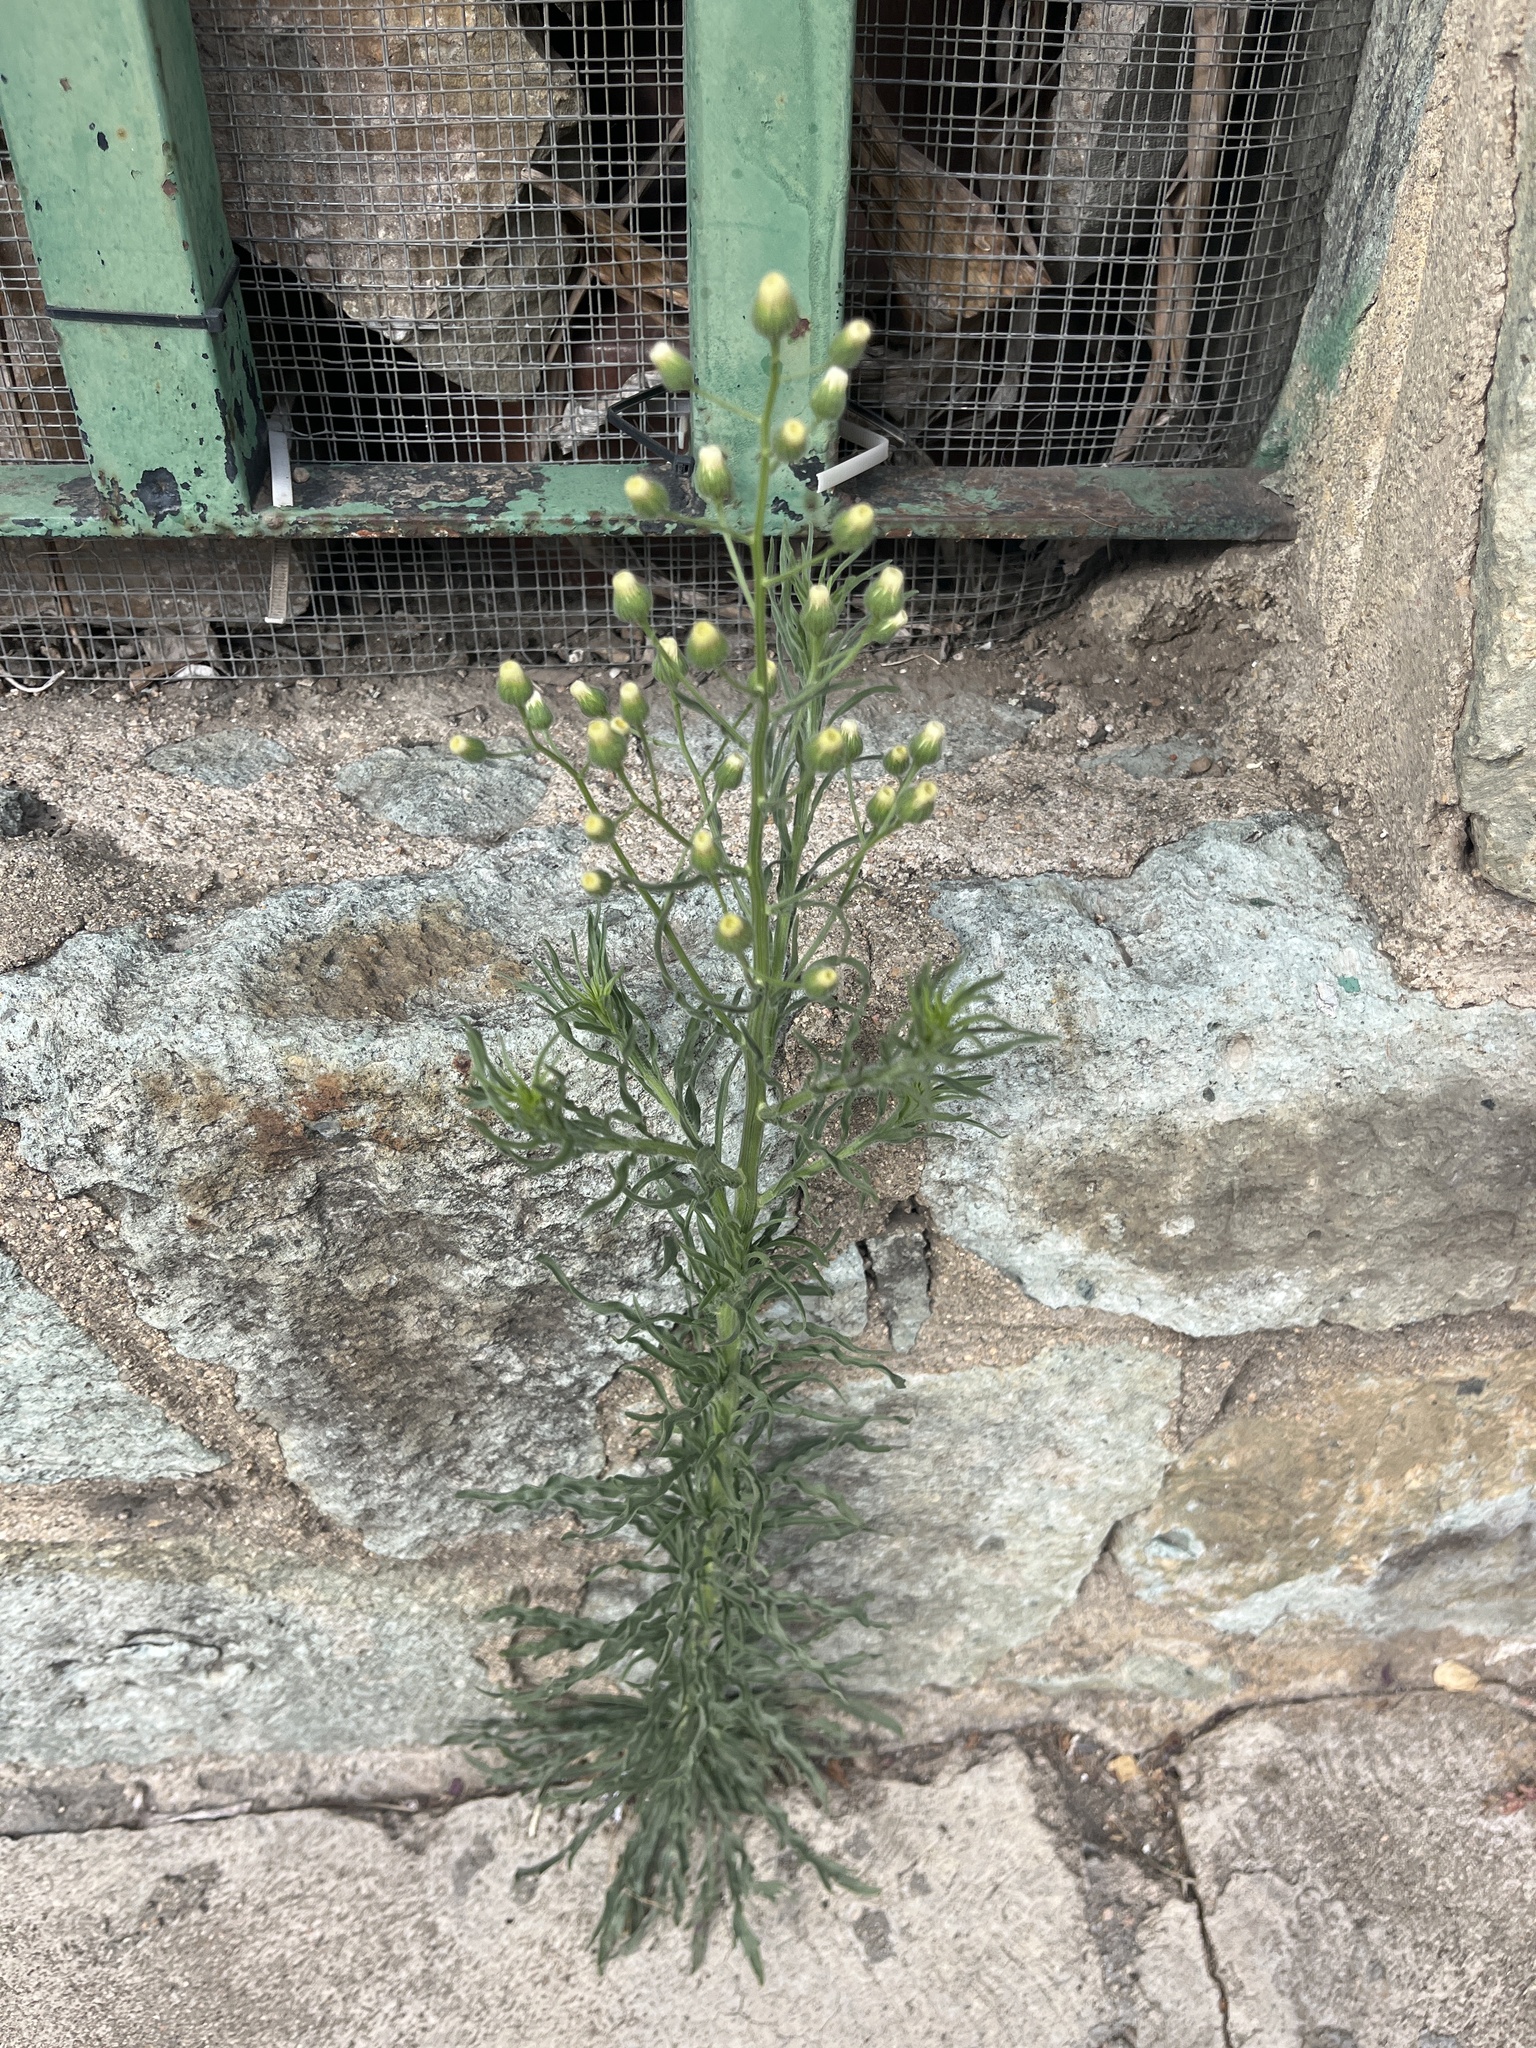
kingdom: Plantae
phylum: Tracheophyta
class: Magnoliopsida
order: Asterales
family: Asteraceae
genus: Erigeron
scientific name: Erigeron bonariensis
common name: Argentine fleabane
